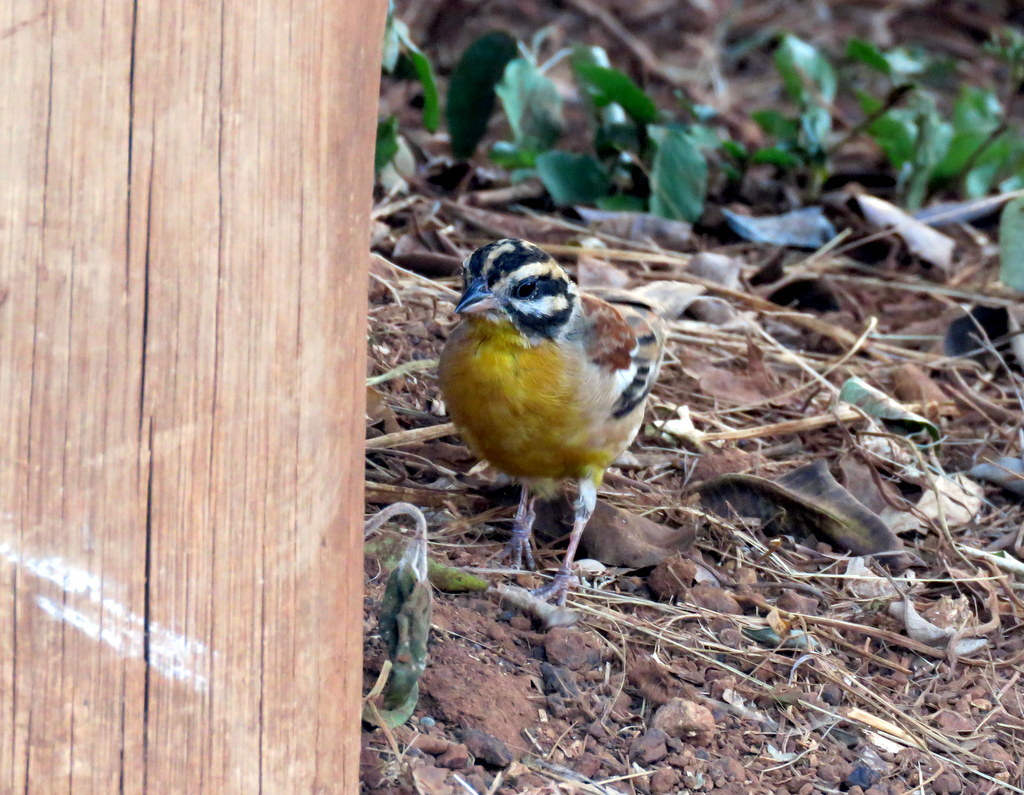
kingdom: Animalia
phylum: Chordata
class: Aves
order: Passeriformes
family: Emberizidae
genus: Emberiza
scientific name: Emberiza flaviventris
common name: Golden-breasted bunting
